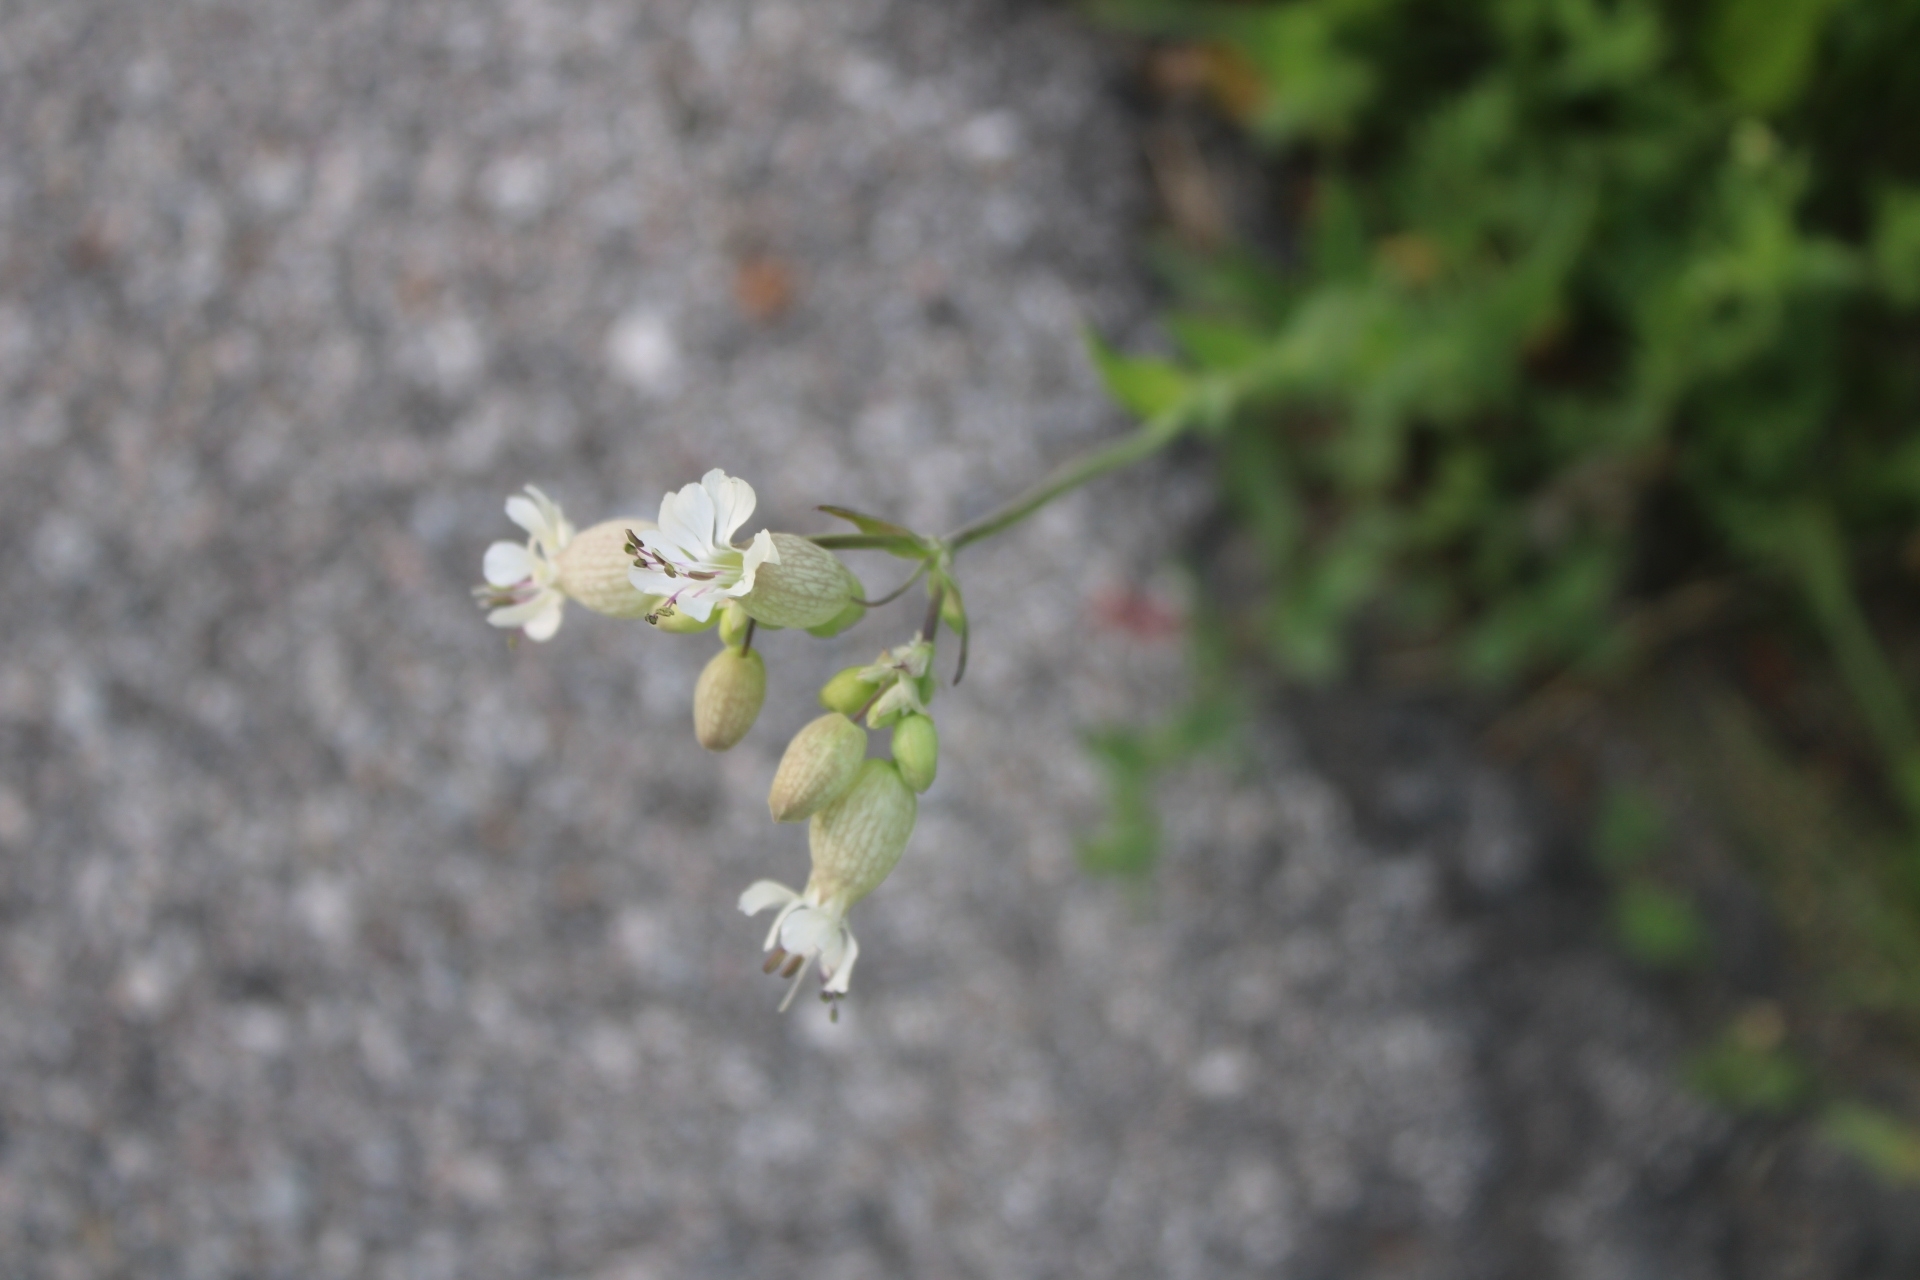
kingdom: Plantae
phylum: Tracheophyta
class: Magnoliopsida
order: Caryophyllales
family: Caryophyllaceae
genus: Silene
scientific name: Silene vulgaris
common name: Bladder campion
